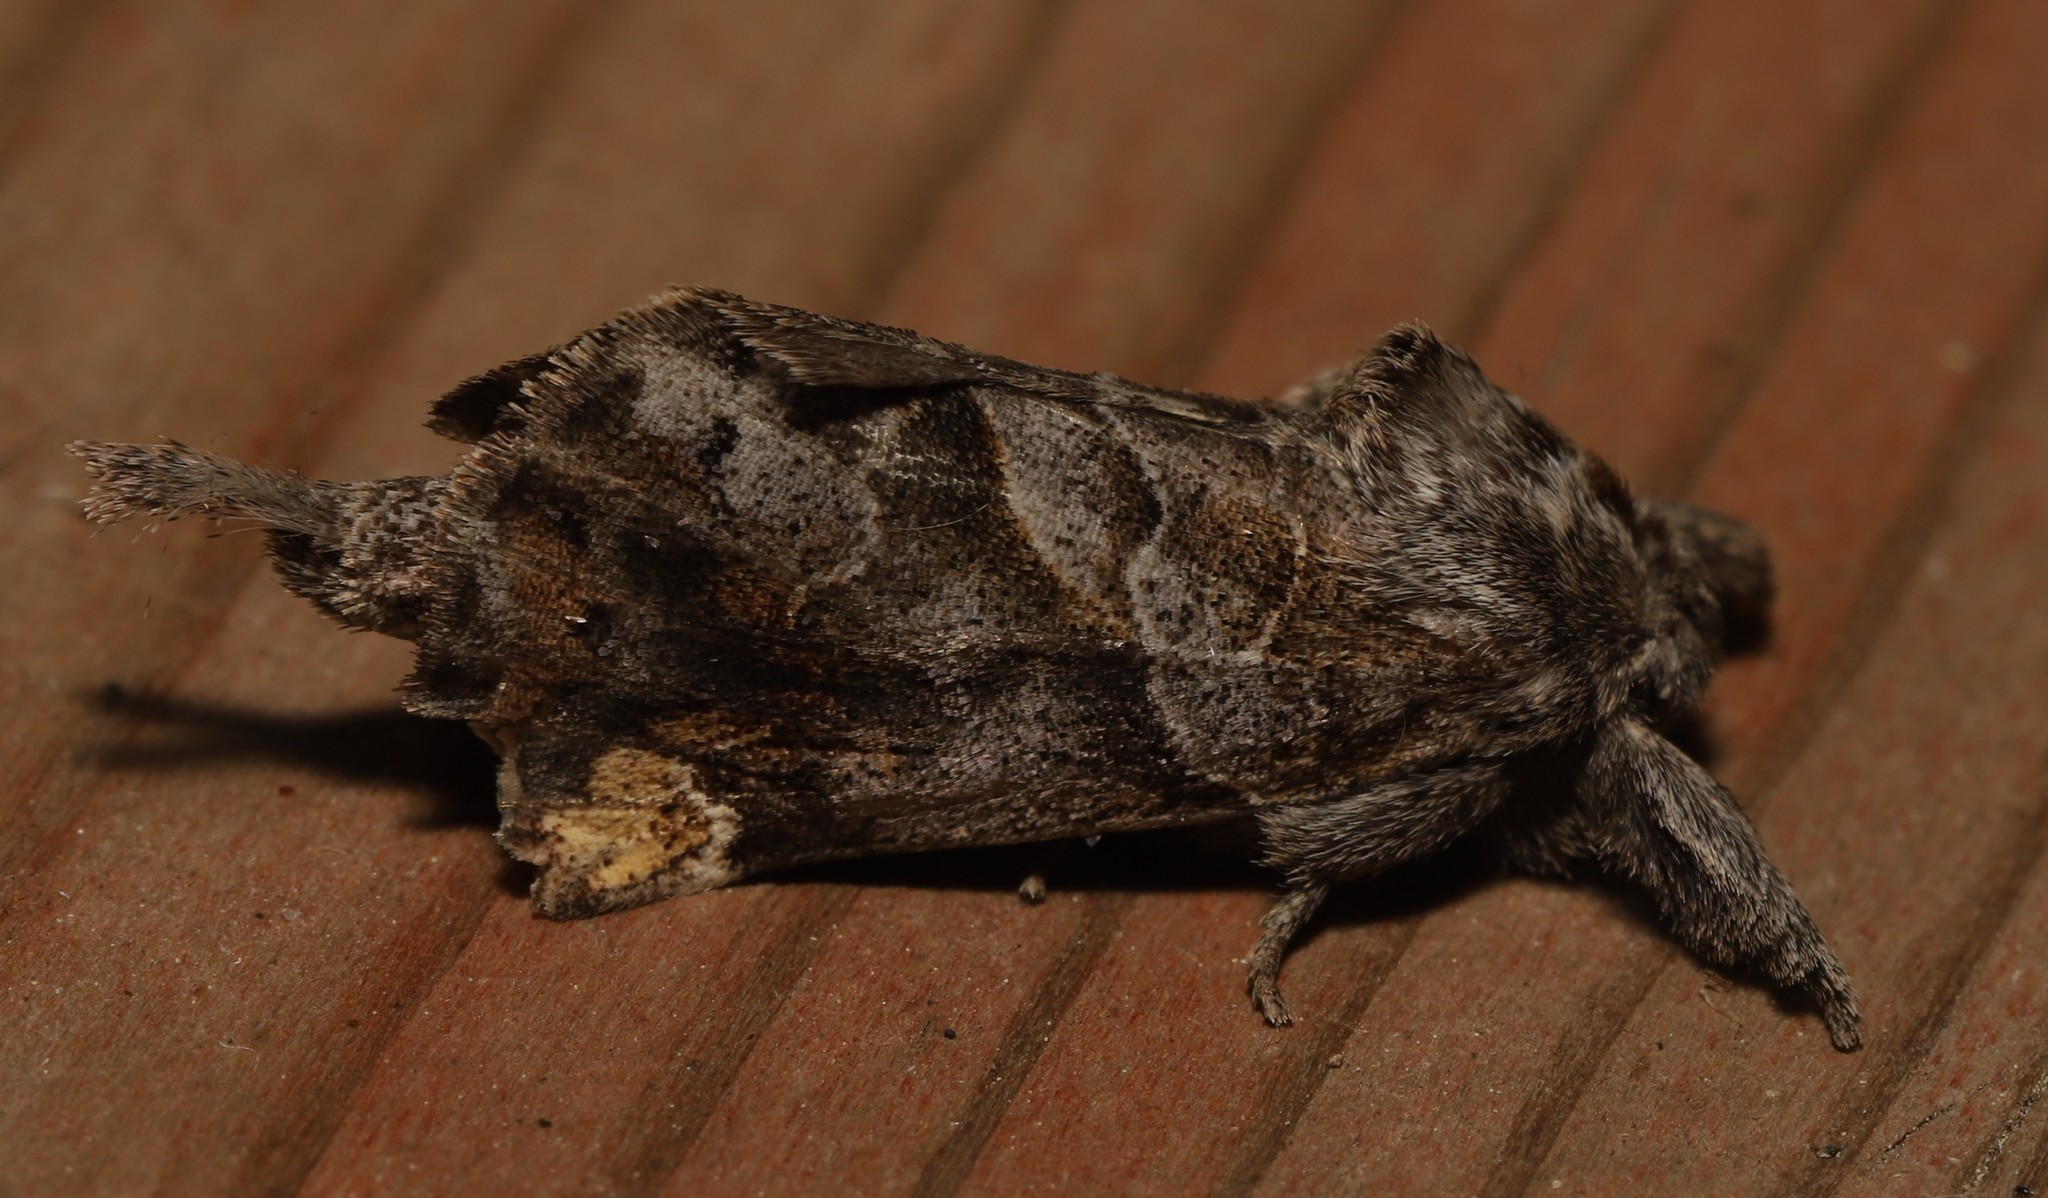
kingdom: Animalia
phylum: Arthropoda
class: Insecta
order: Lepidoptera
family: Notodontidae
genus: Clostera
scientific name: Clostera strigosa
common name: Striped chocolate-tip moth
